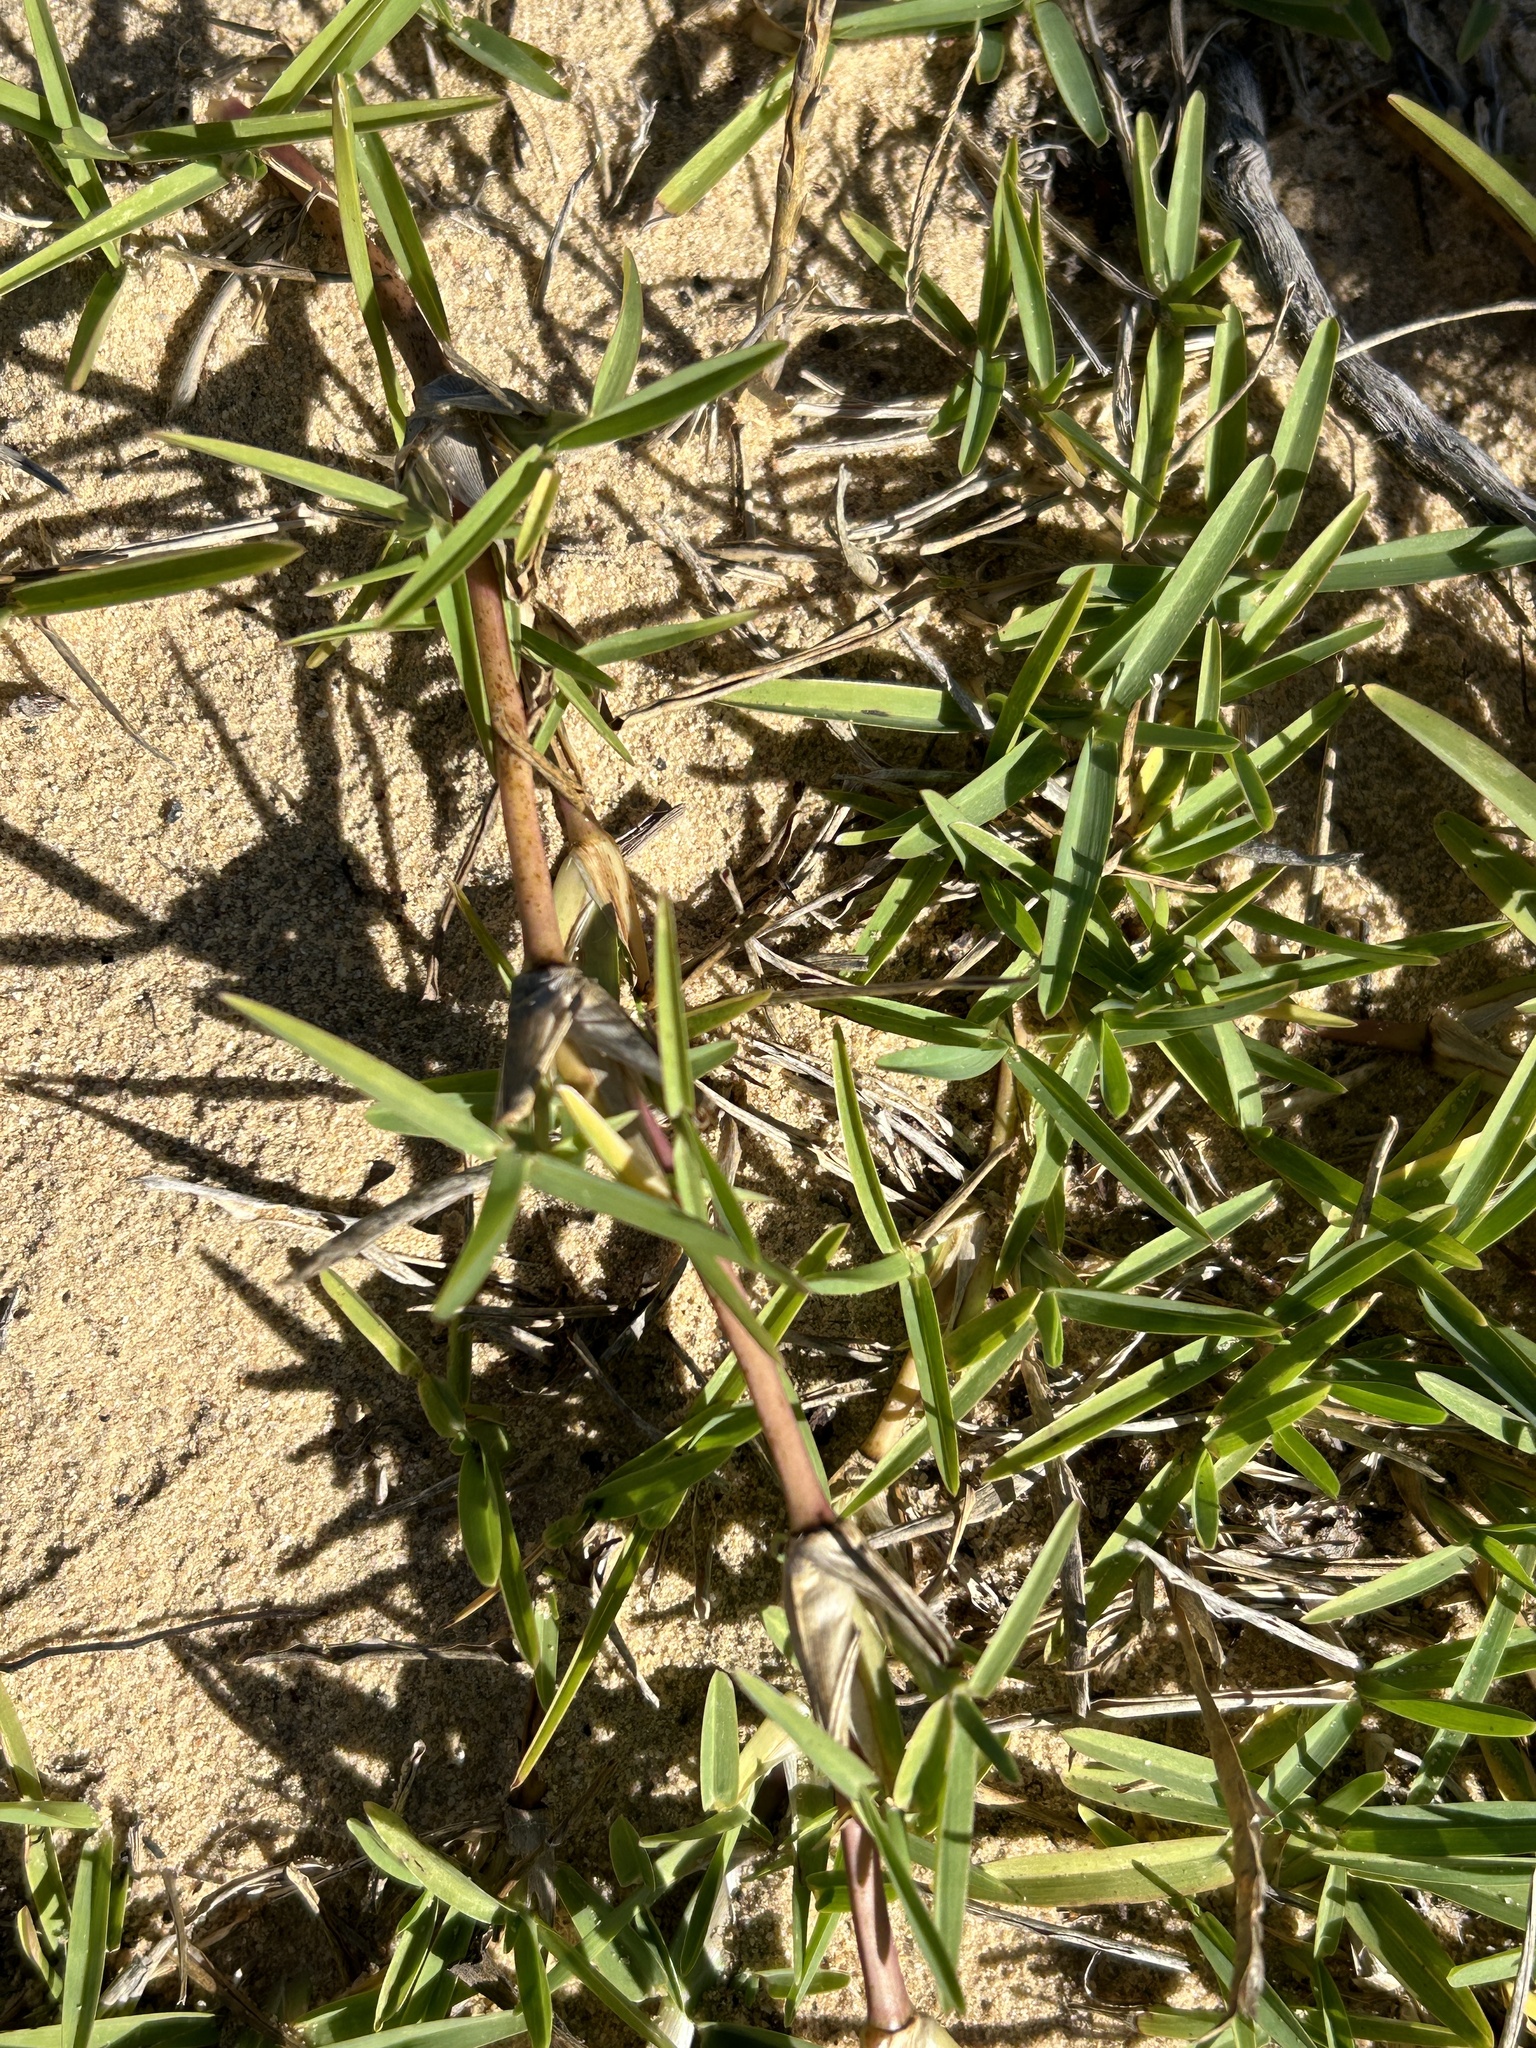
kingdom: Plantae
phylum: Tracheophyta
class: Liliopsida
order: Poales
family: Poaceae
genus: Cenchrus
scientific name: Cenchrus clandestinus
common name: Kikuyugrass
